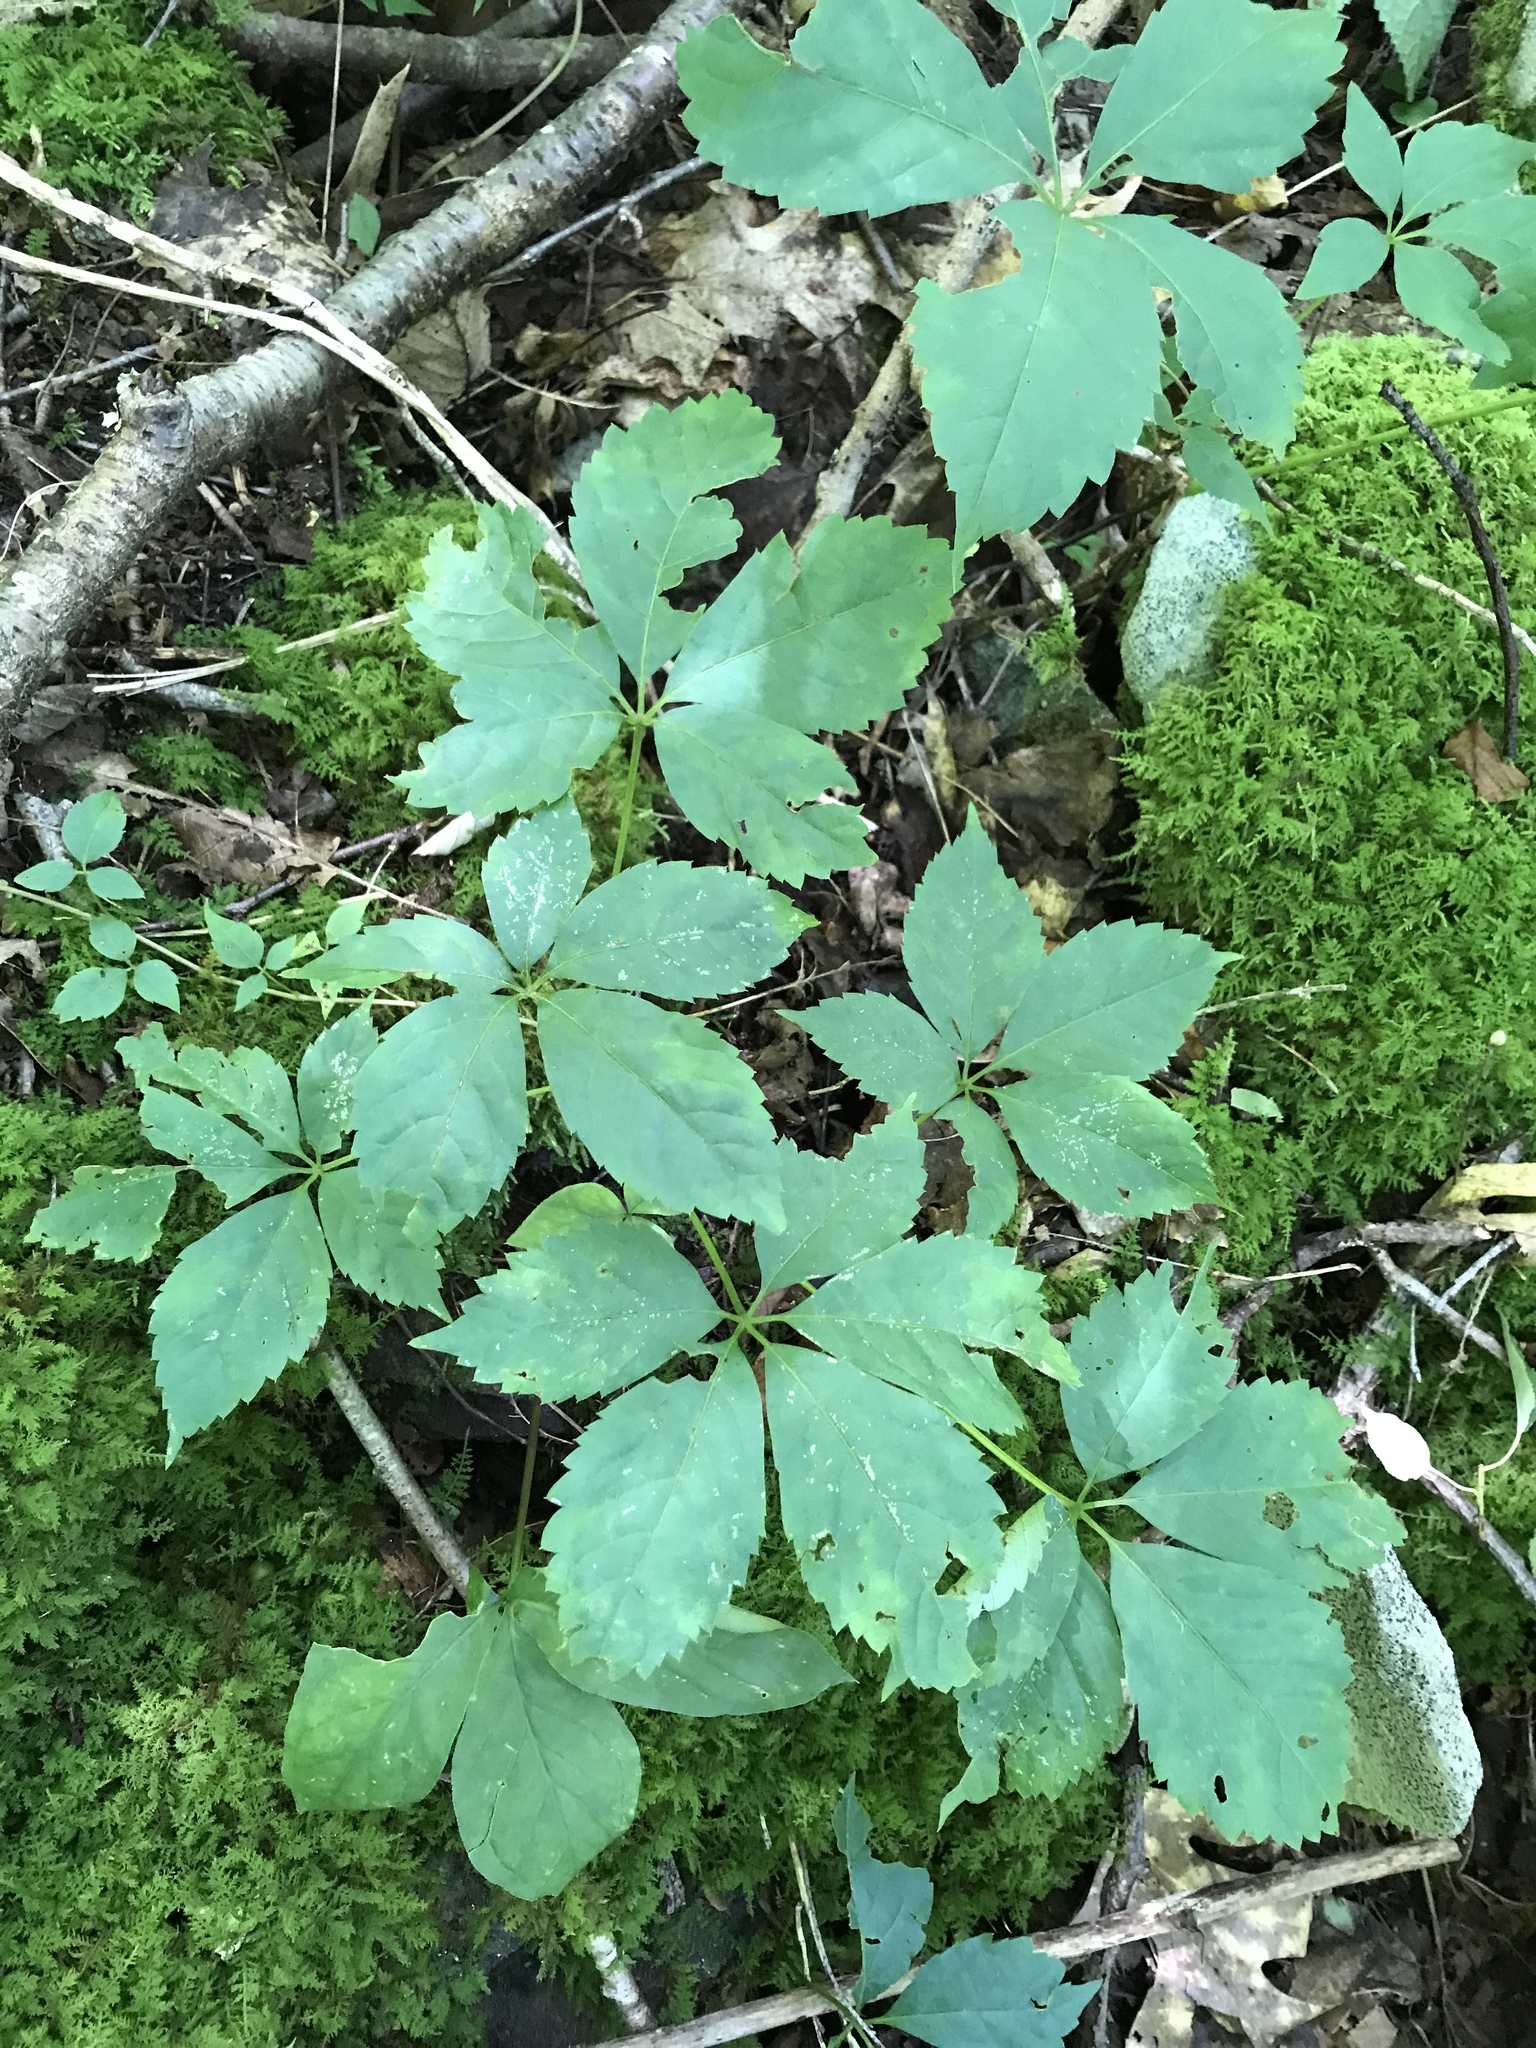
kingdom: Plantae
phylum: Tracheophyta
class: Magnoliopsida
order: Vitales
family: Vitaceae
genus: Parthenocissus
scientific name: Parthenocissus quinquefolia
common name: Virginia-creeper
